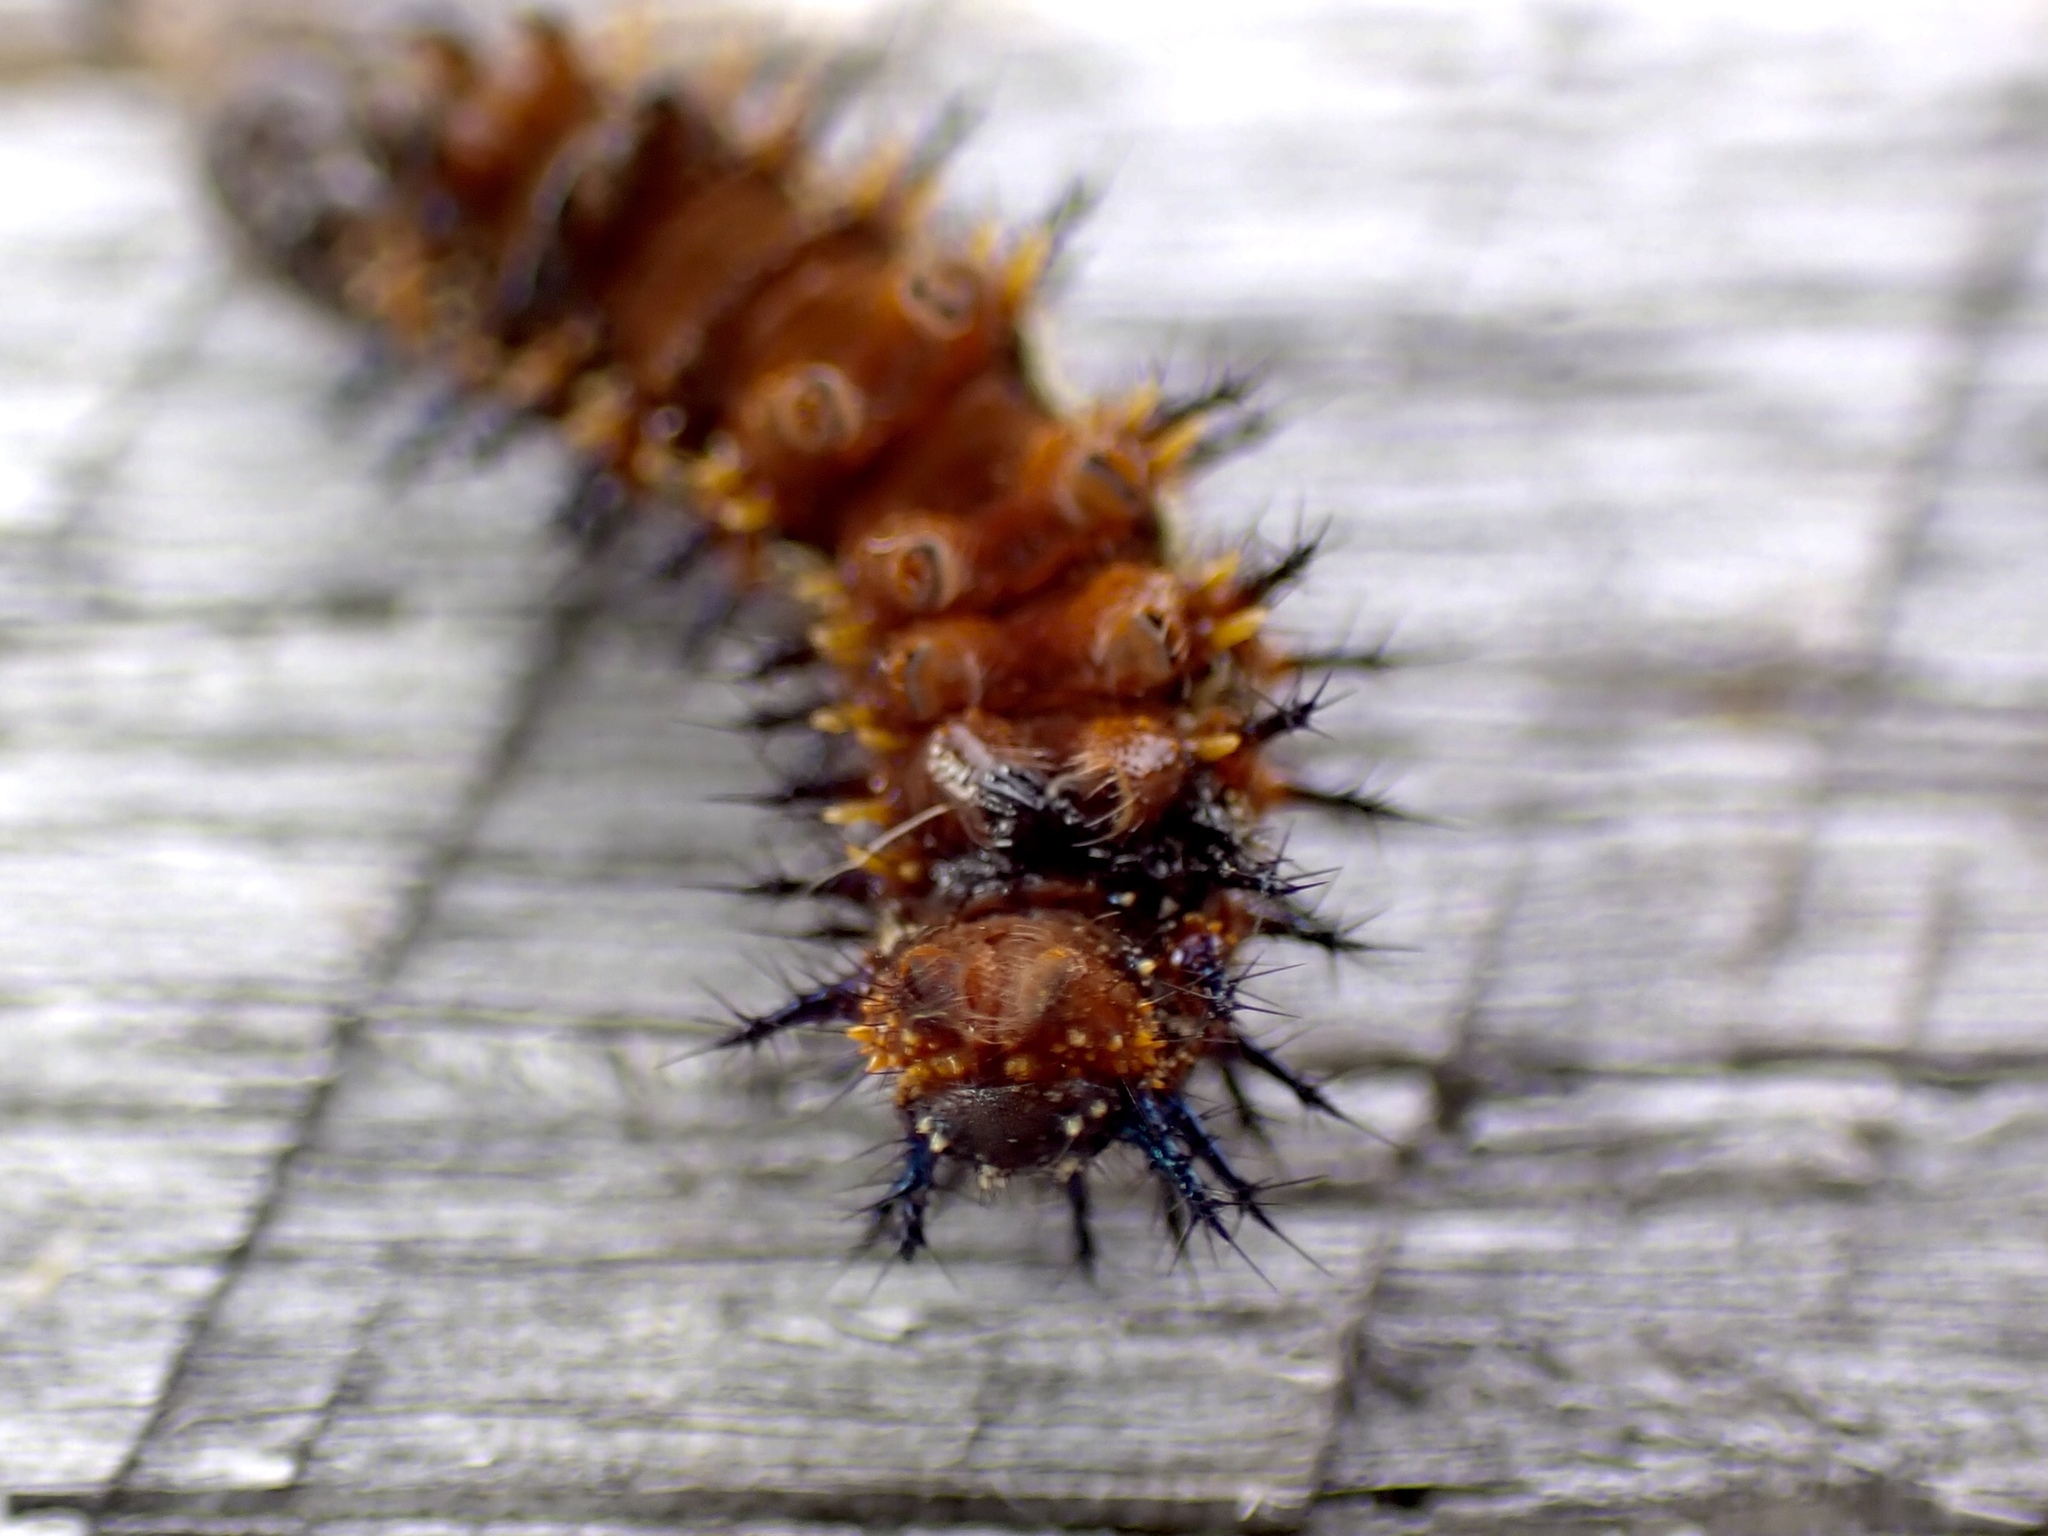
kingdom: Animalia
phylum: Arthropoda
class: Insecta
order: Lepidoptera
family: Nymphalidae
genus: Junonia
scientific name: Junonia coenia
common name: Common buckeye
